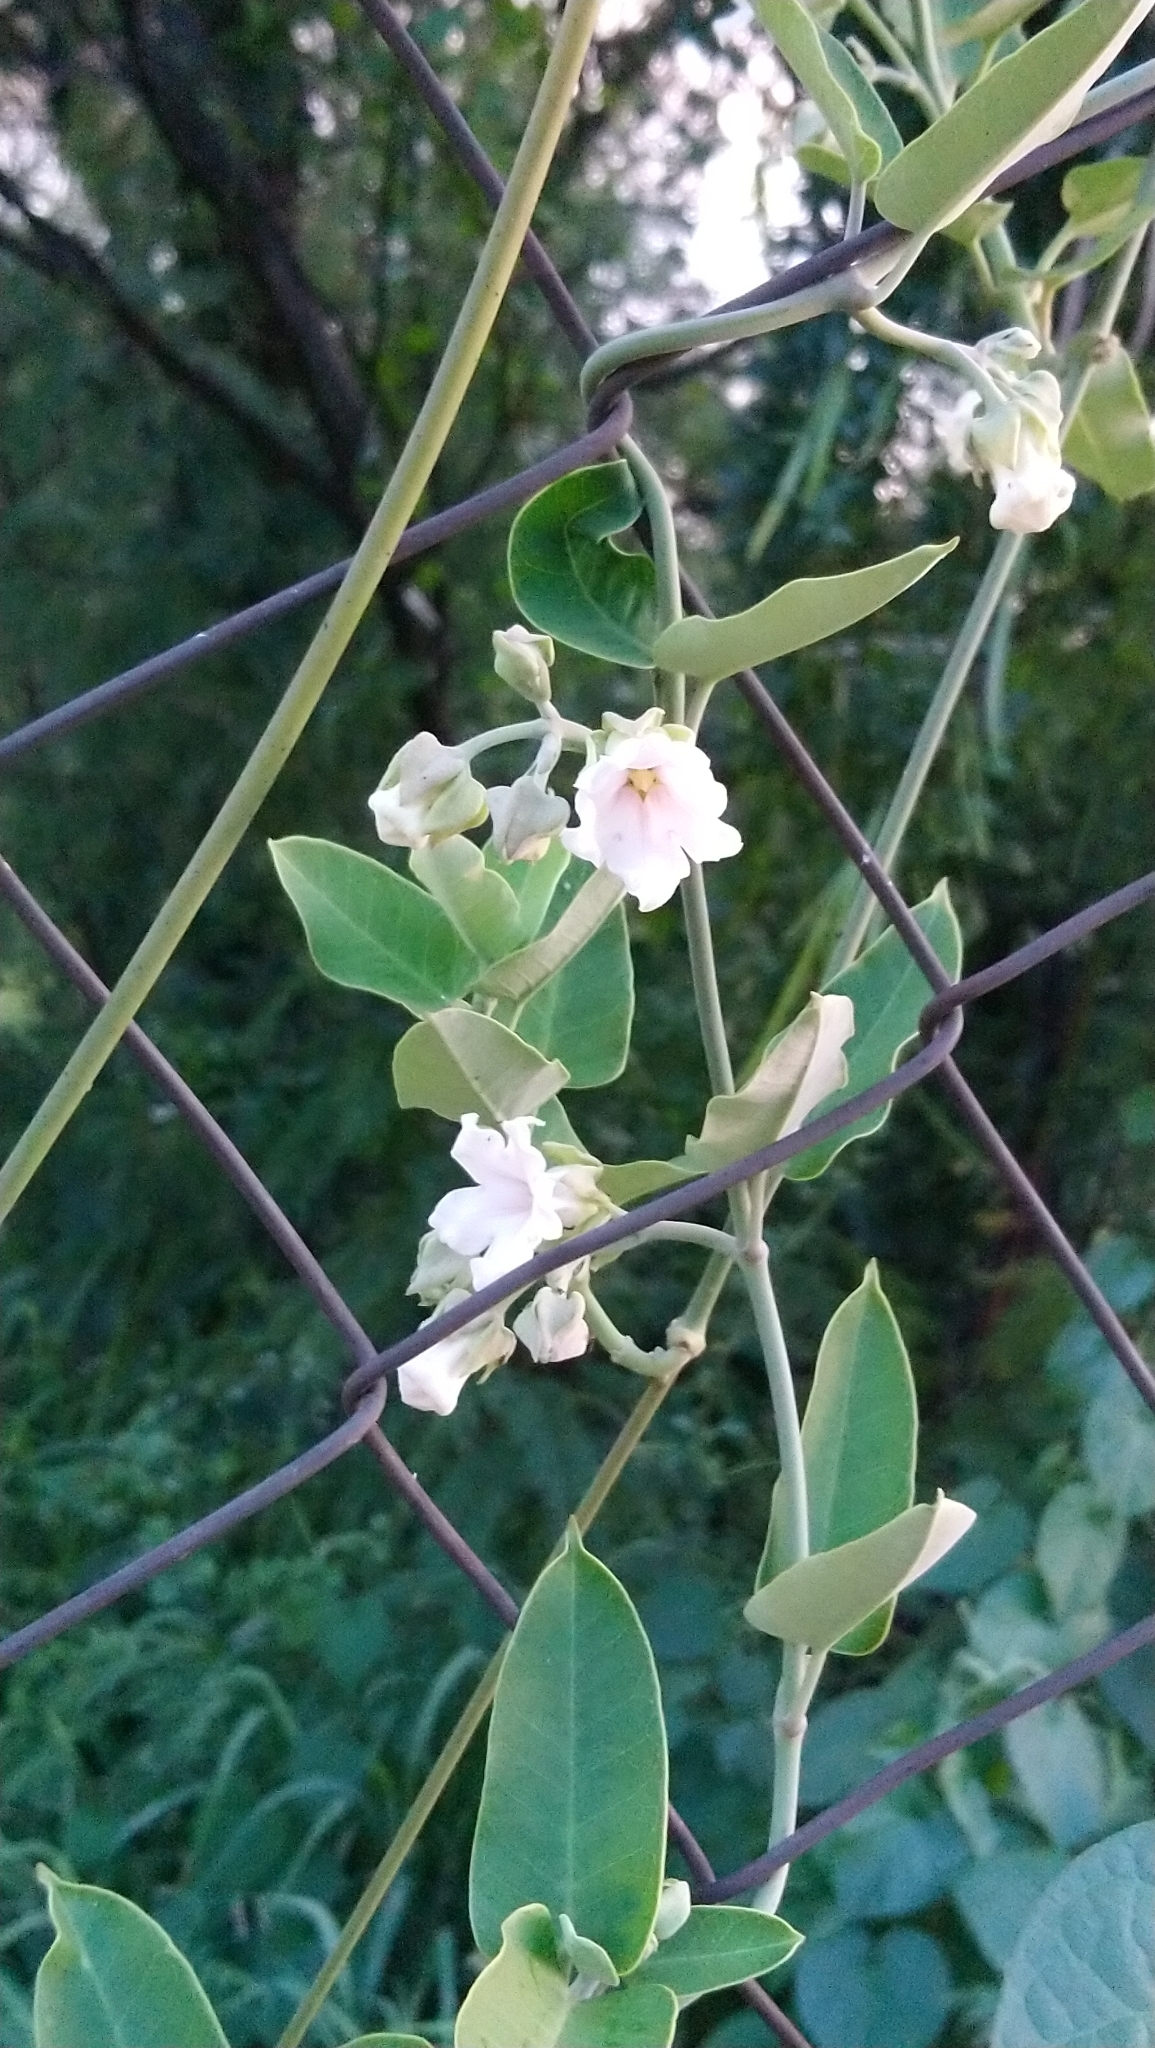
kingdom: Plantae
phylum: Tracheophyta
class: Magnoliopsida
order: Gentianales
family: Apocynaceae
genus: Araujia
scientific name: Araujia sericifera
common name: White bladderflower
